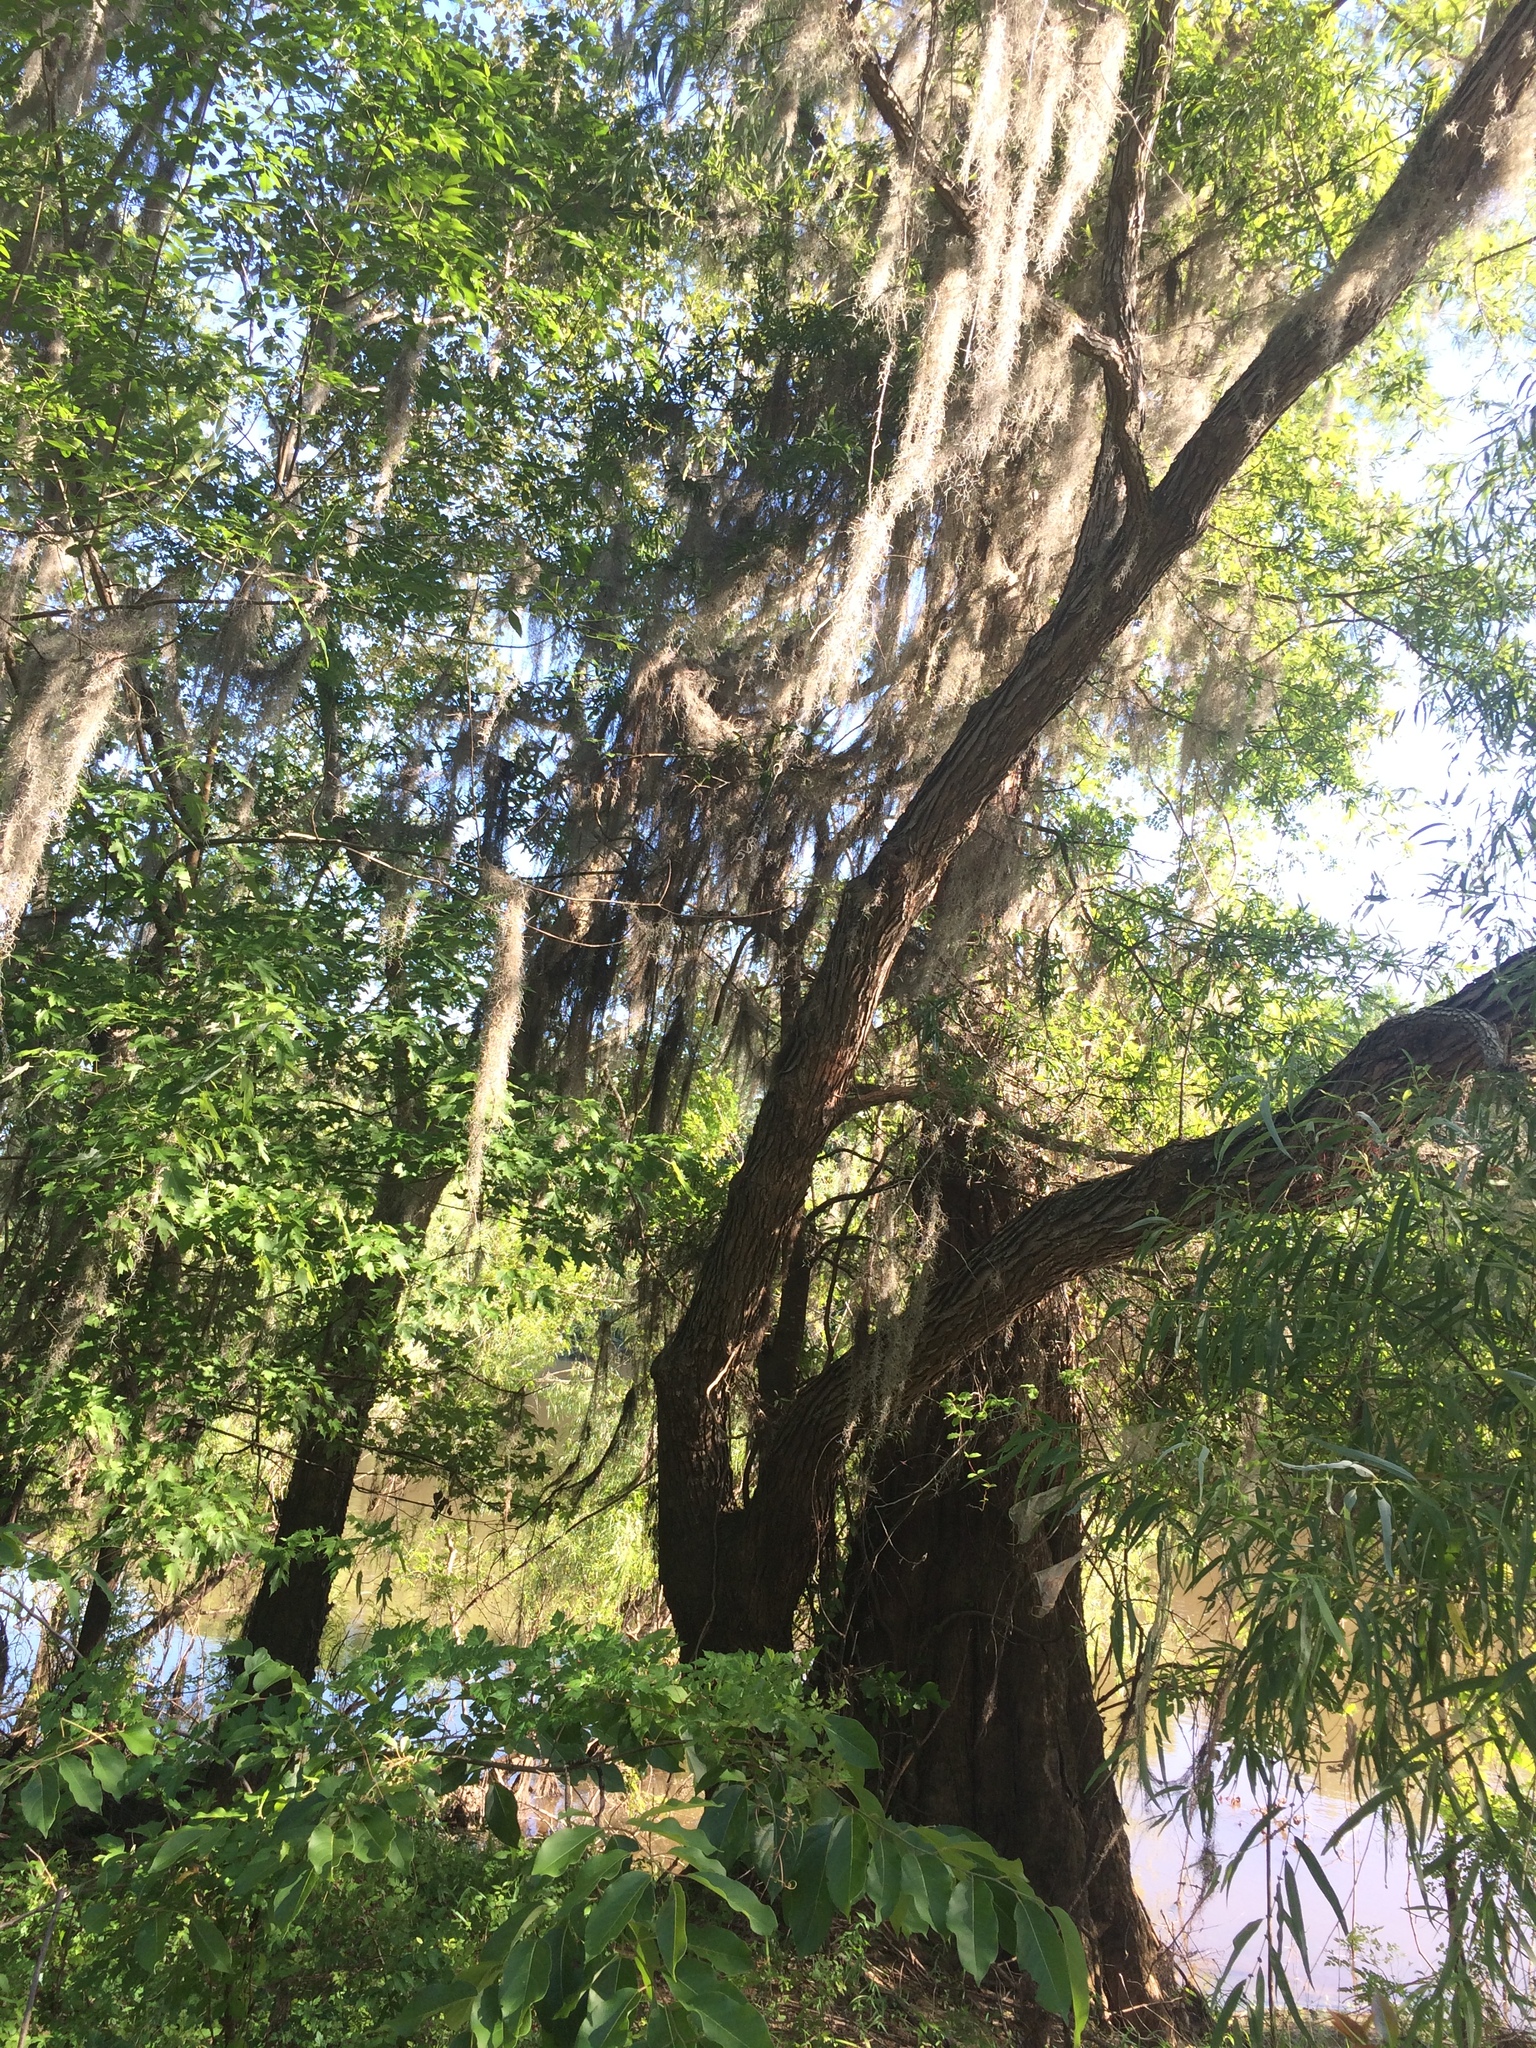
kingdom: Plantae
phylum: Tracheophyta
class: Liliopsida
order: Poales
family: Bromeliaceae
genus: Tillandsia
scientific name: Tillandsia usneoides
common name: Spanish moss
